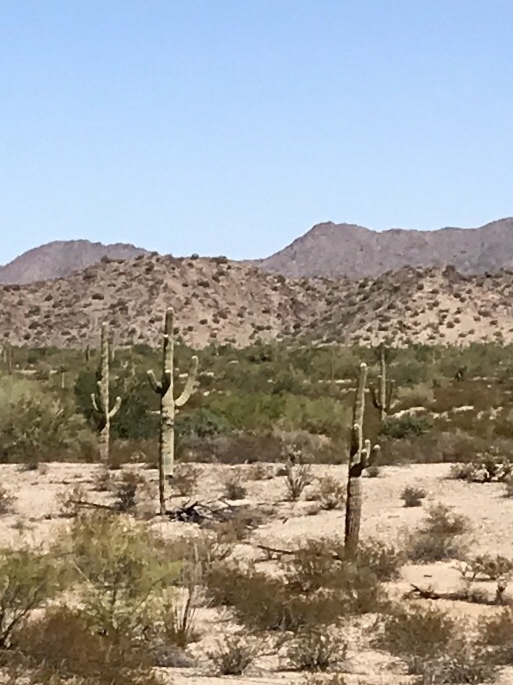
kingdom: Plantae
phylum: Tracheophyta
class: Magnoliopsida
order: Caryophyllales
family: Cactaceae
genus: Carnegiea
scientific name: Carnegiea gigantea
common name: Saguaro
